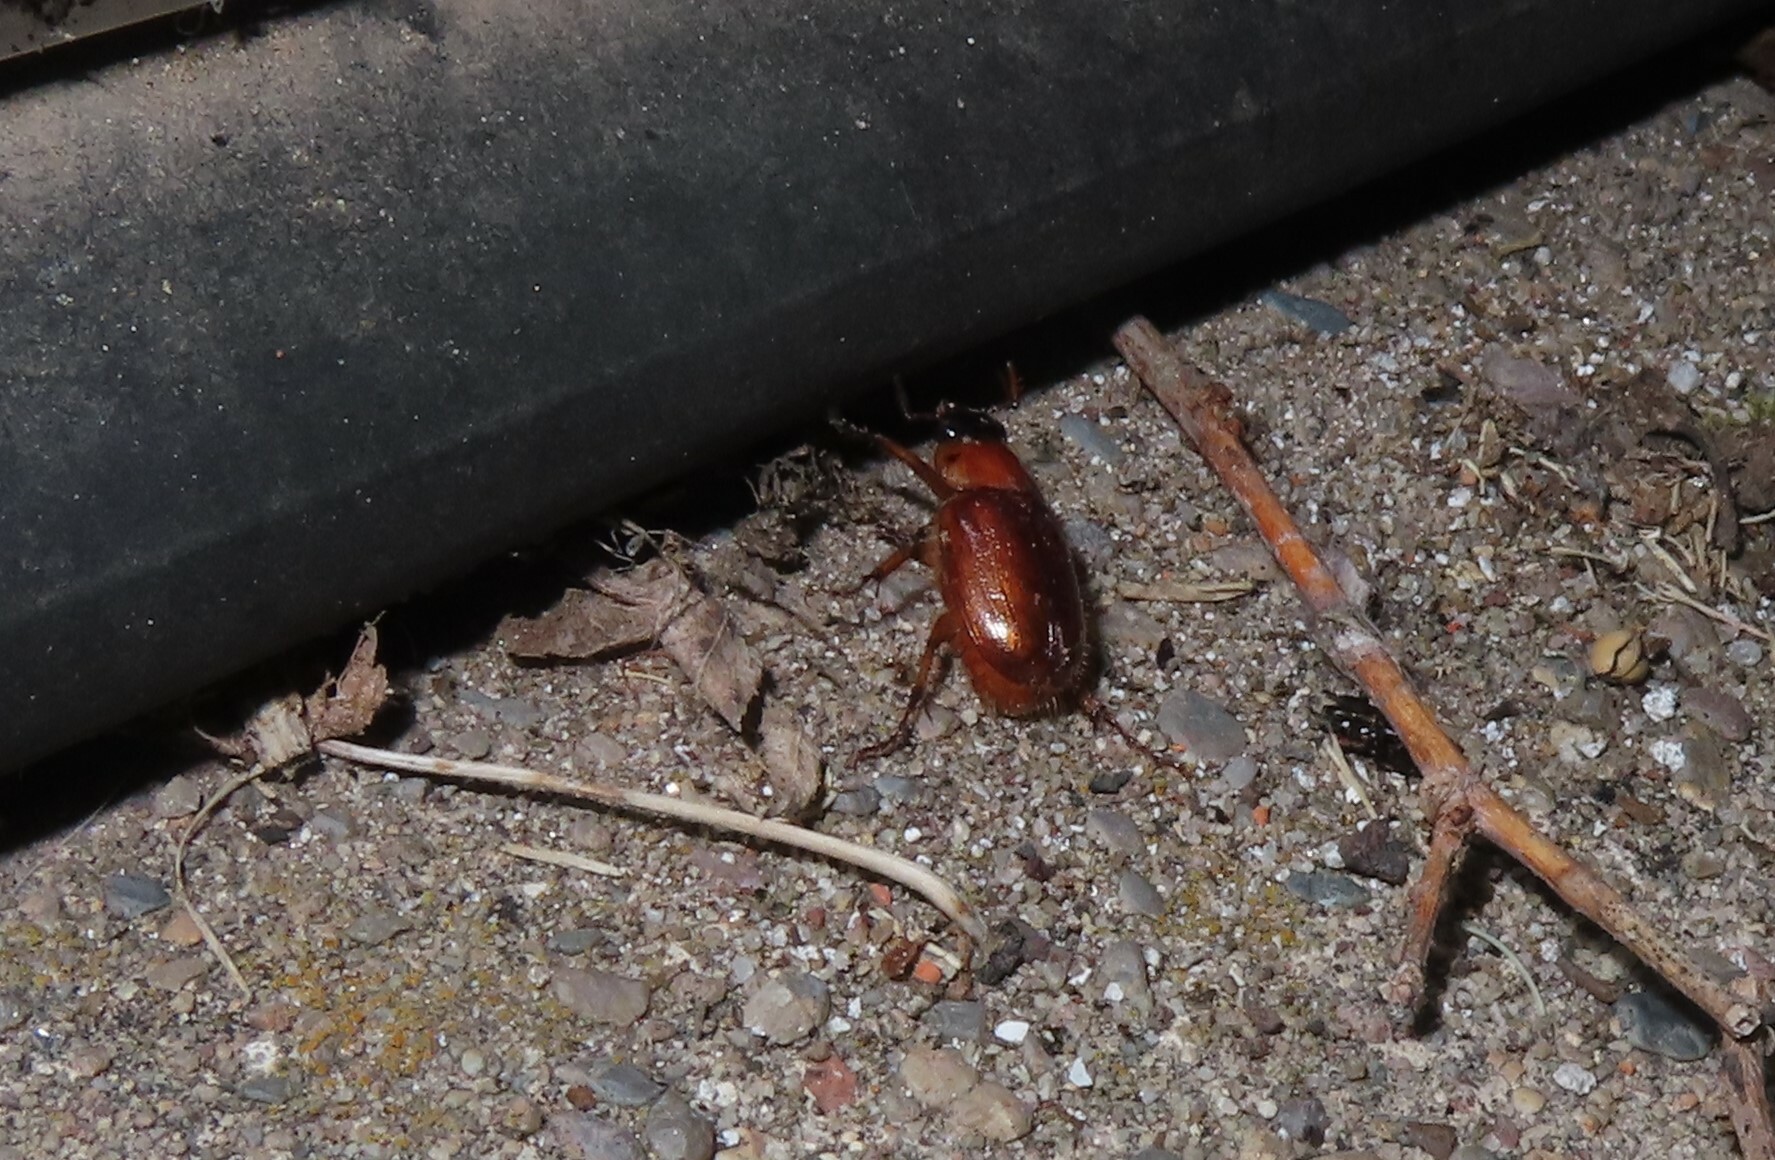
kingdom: Animalia
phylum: Arthropoda
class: Insecta
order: Coleoptera
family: Scarabaeidae
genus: Cyclocephala
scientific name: Cyclocephala lurida
